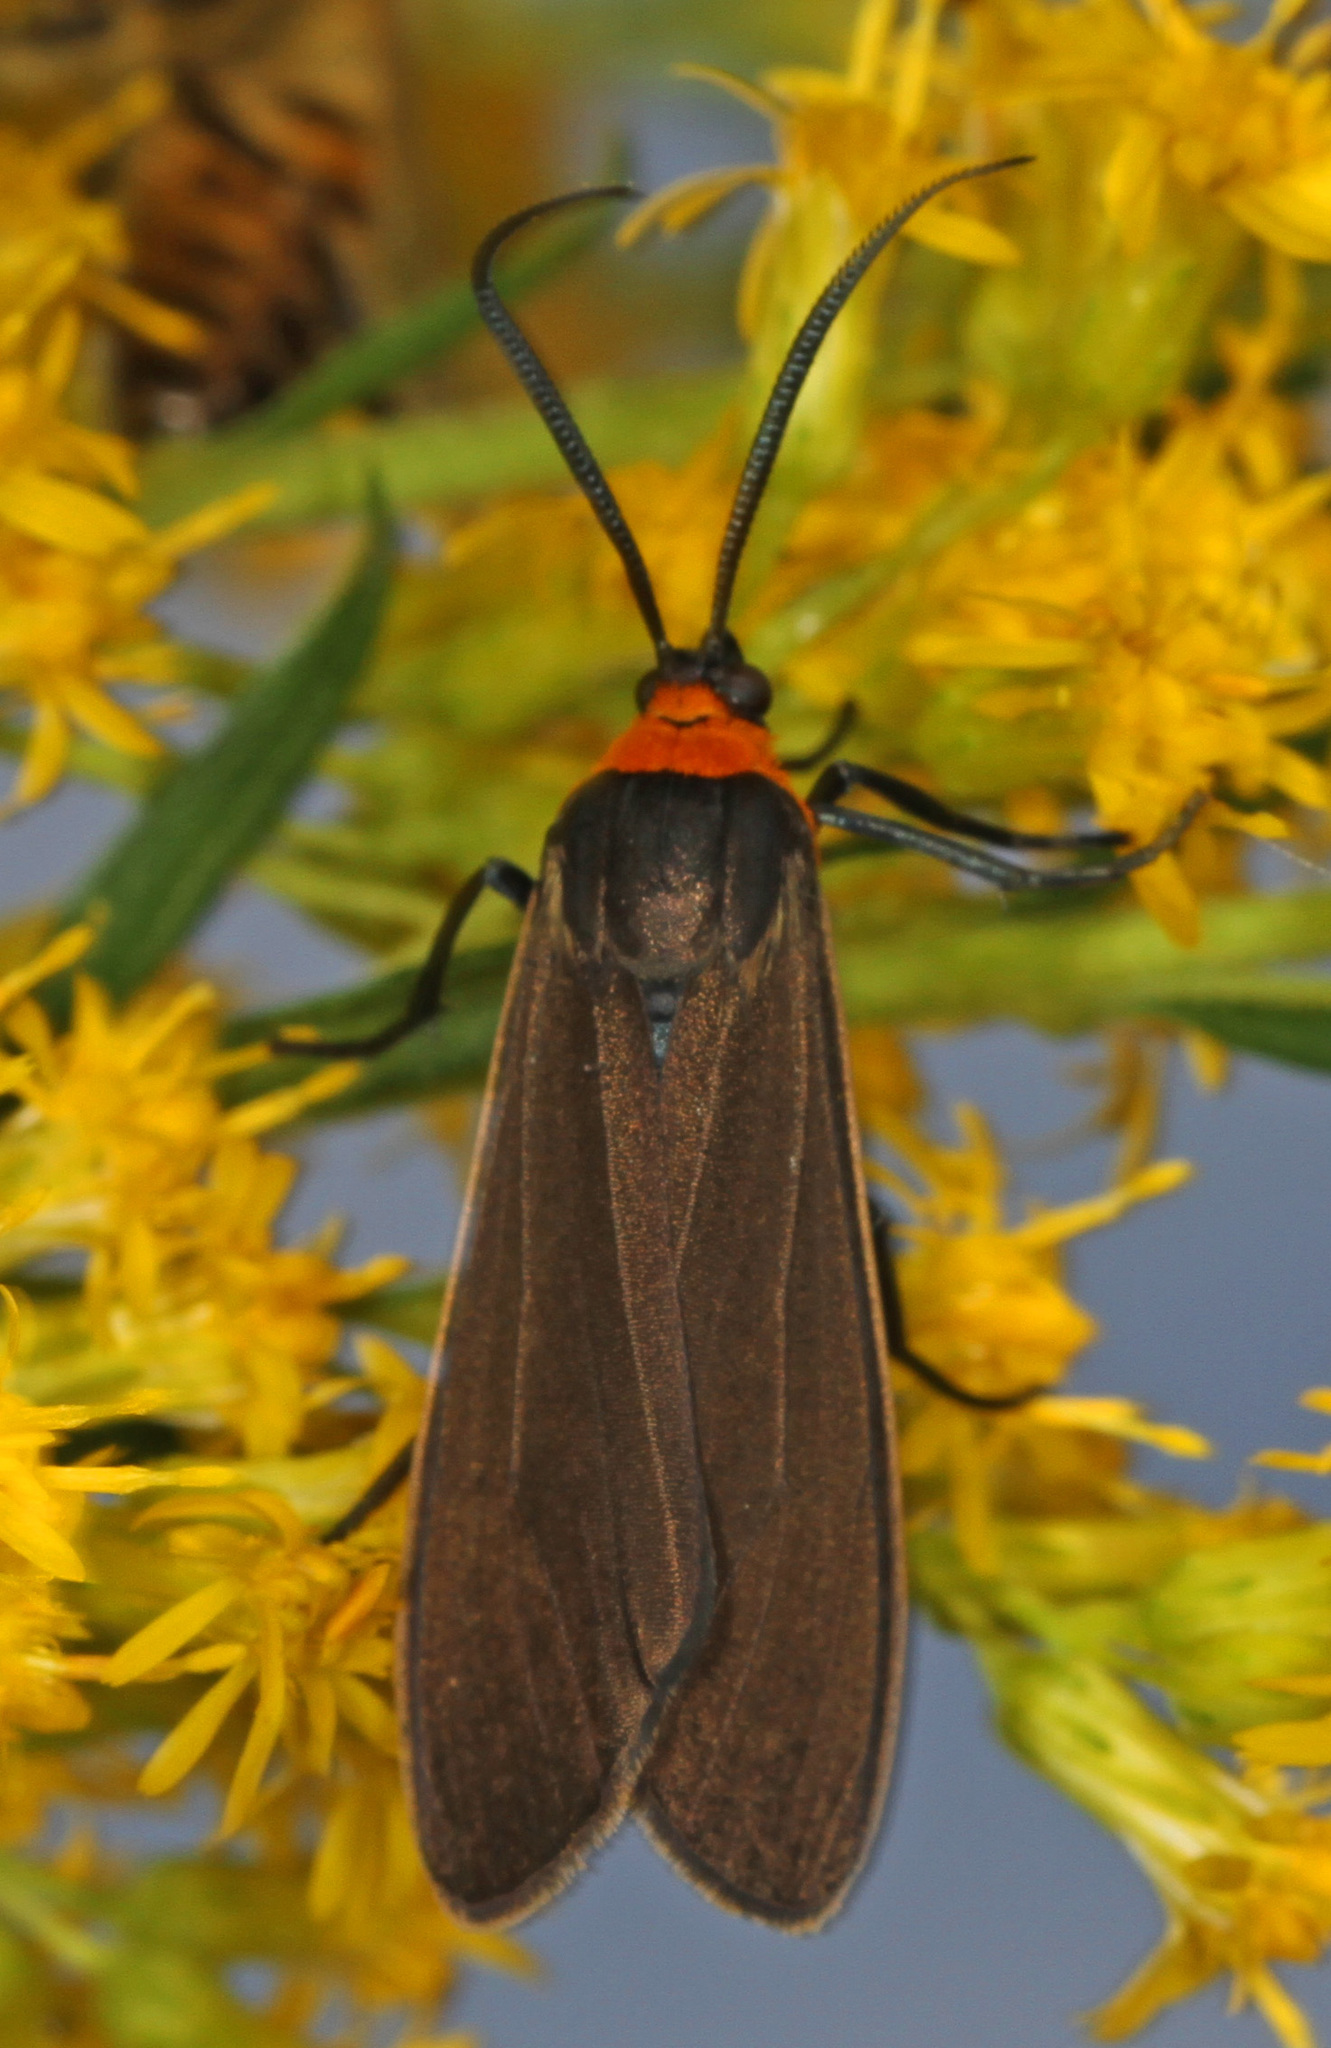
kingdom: Animalia
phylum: Arthropoda
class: Insecta
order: Lepidoptera
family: Erebidae
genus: Cisseps
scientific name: Cisseps fulvicollis
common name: Yellow-collared scape moth
